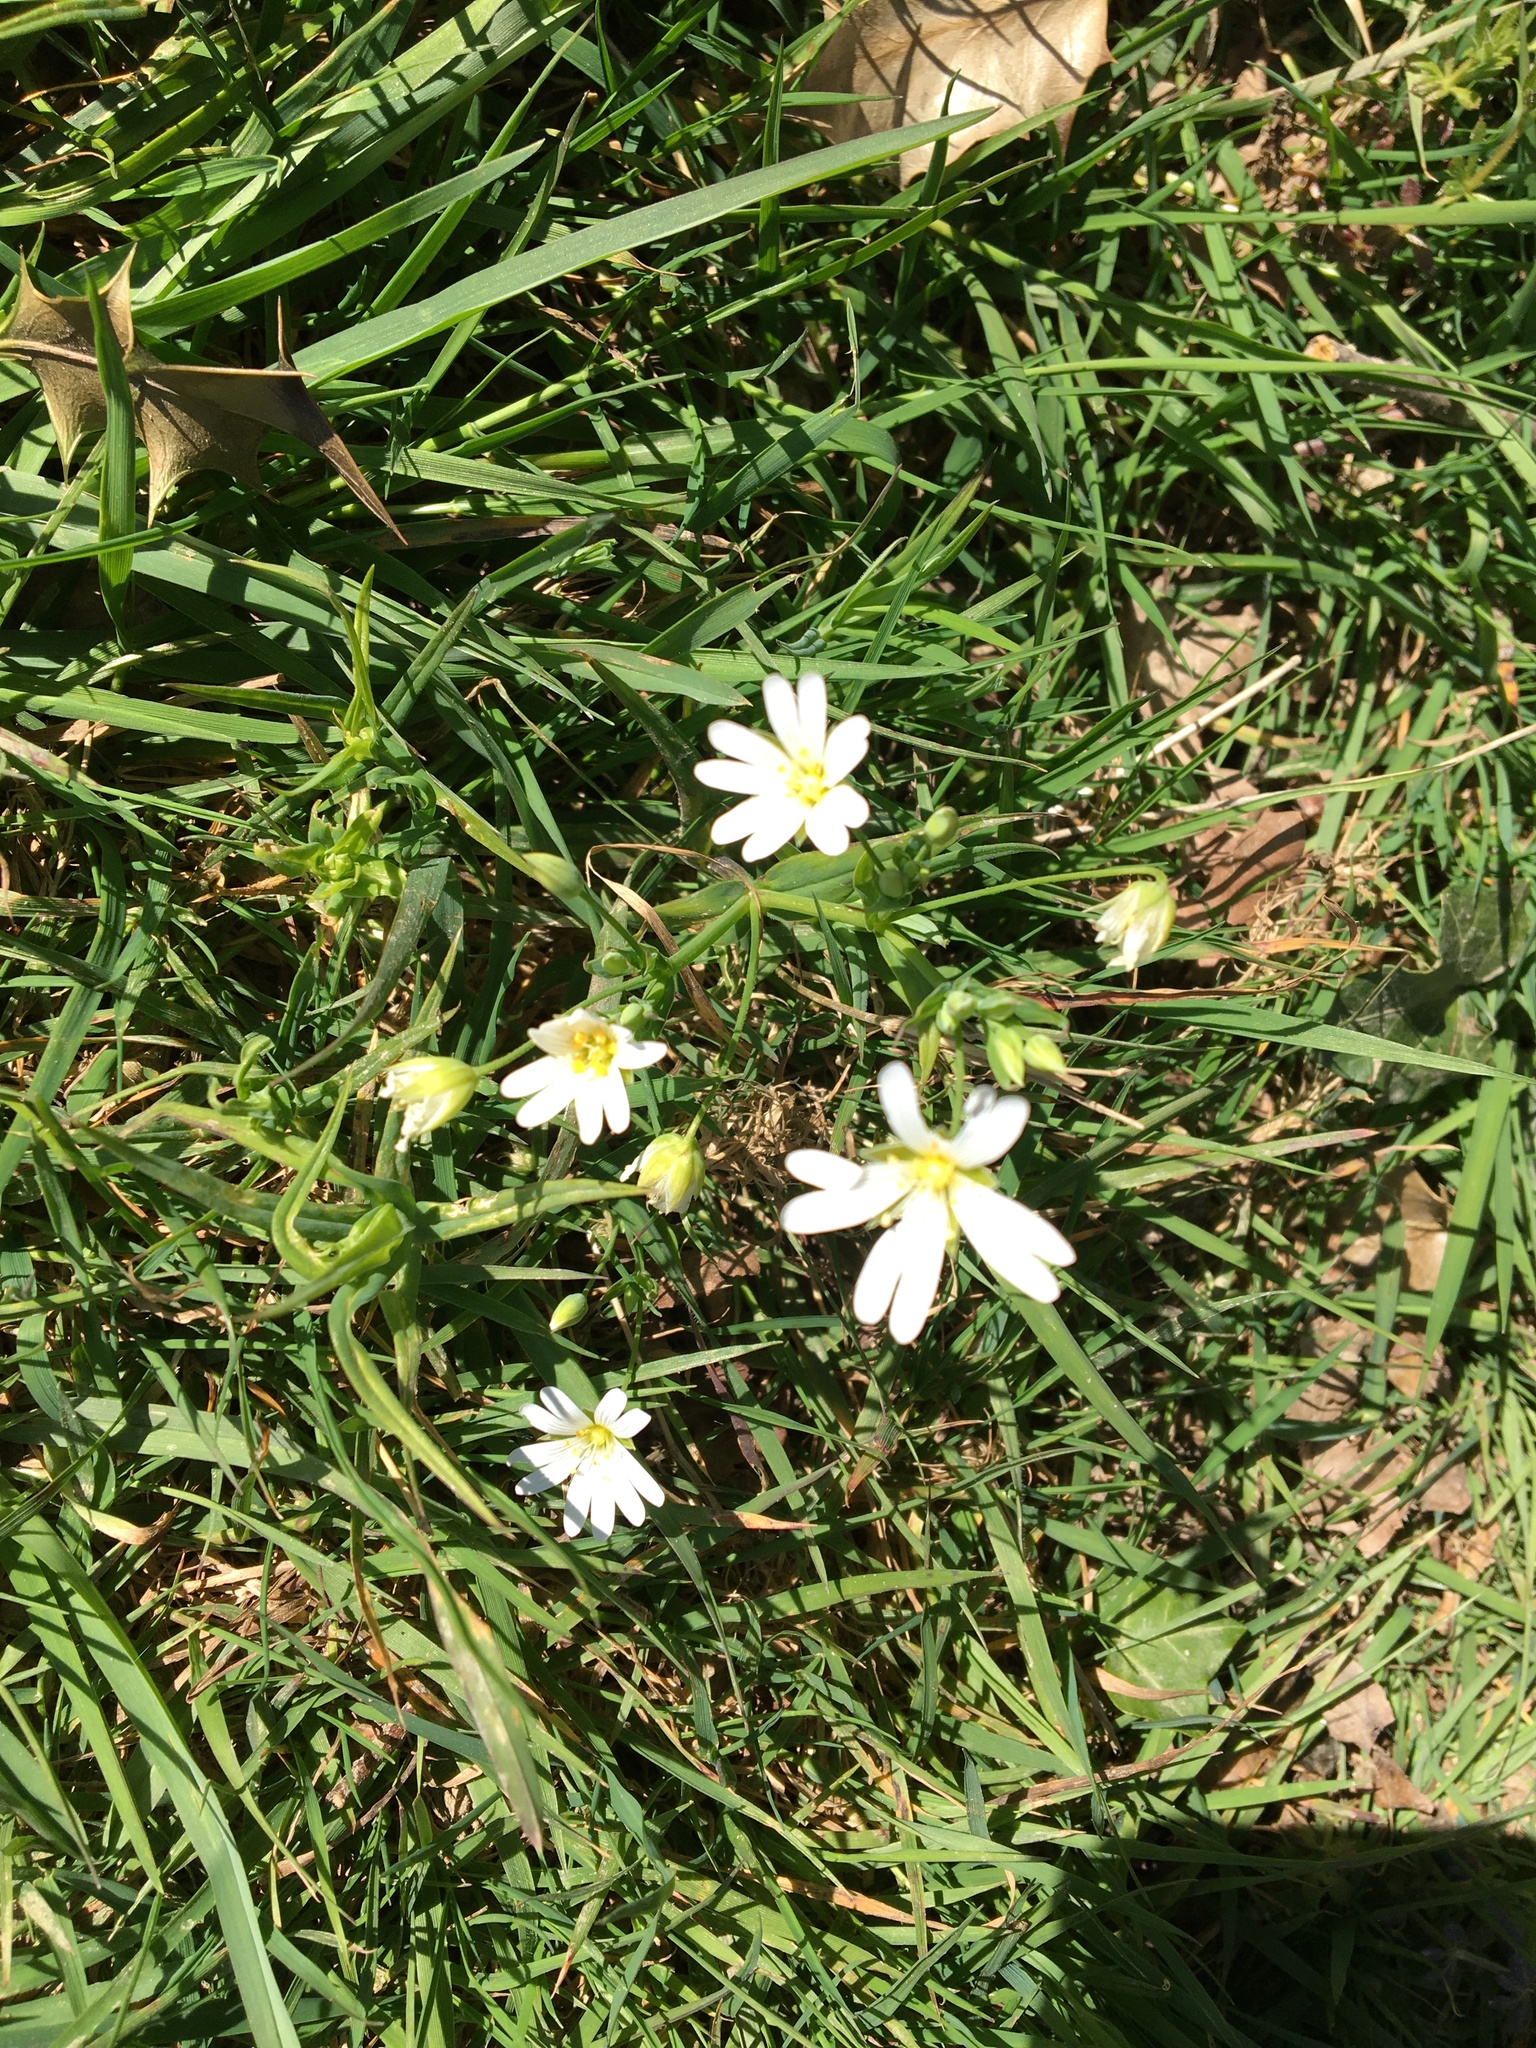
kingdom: Plantae
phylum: Tracheophyta
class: Magnoliopsida
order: Caryophyllales
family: Caryophyllaceae
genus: Rabelera
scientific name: Rabelera holostea
